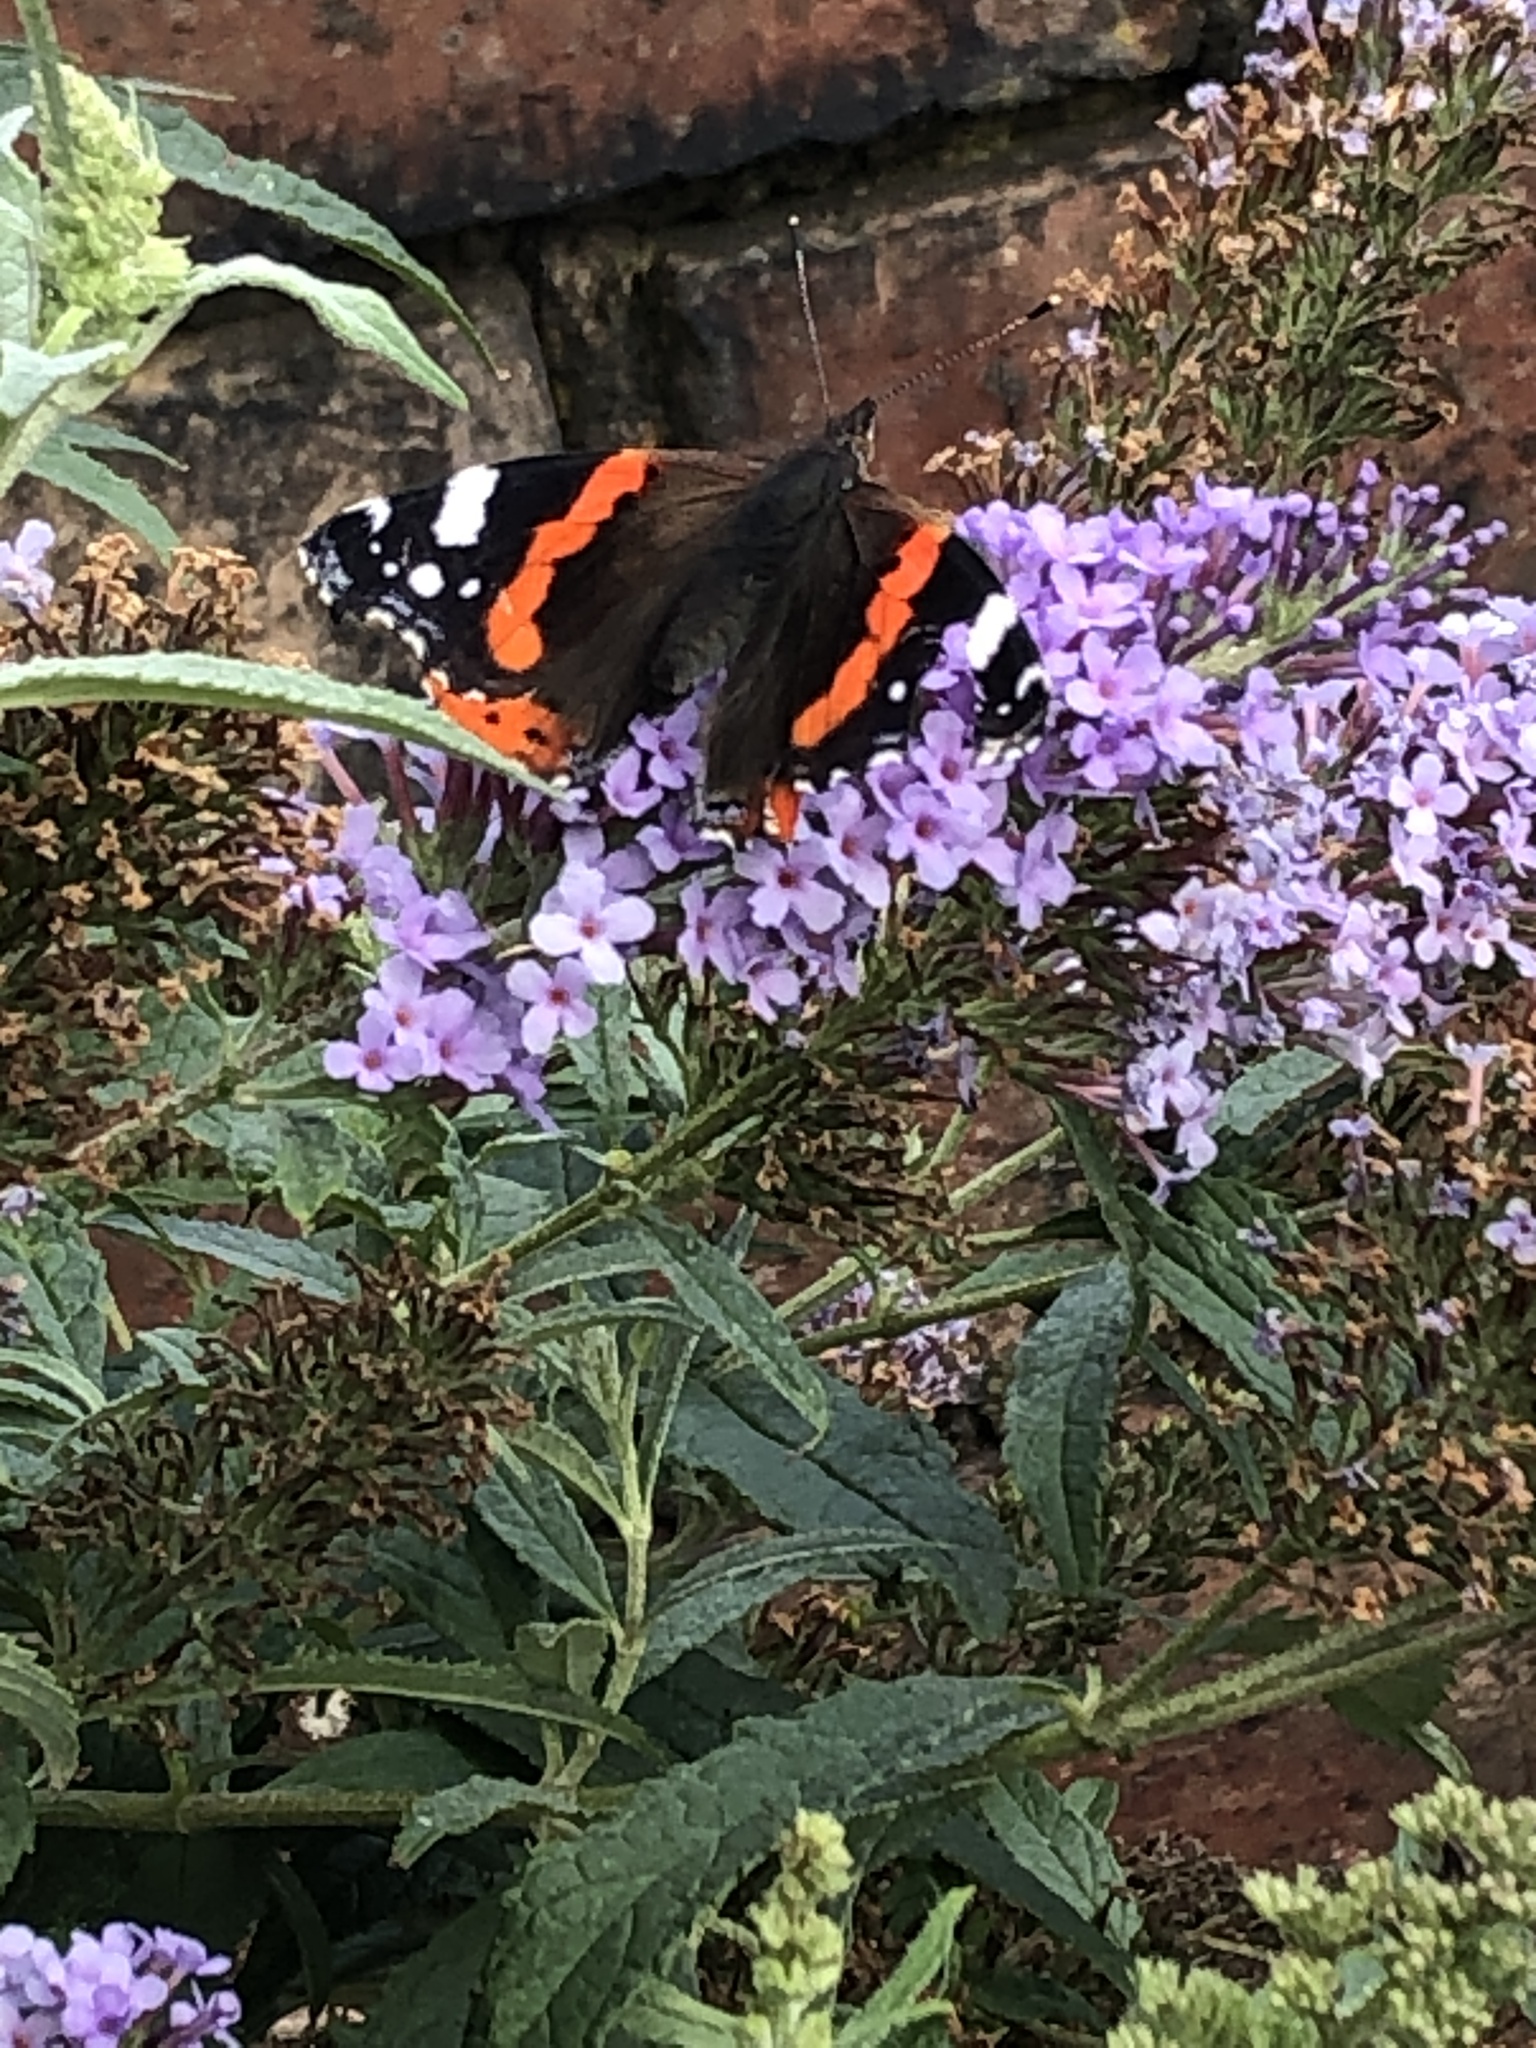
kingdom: Animalia
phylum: Arthropoda
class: Insecta
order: Lepidoptera
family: Nymphalidae
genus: Vanessa
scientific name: Vanessa atalanta
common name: Red admiral
